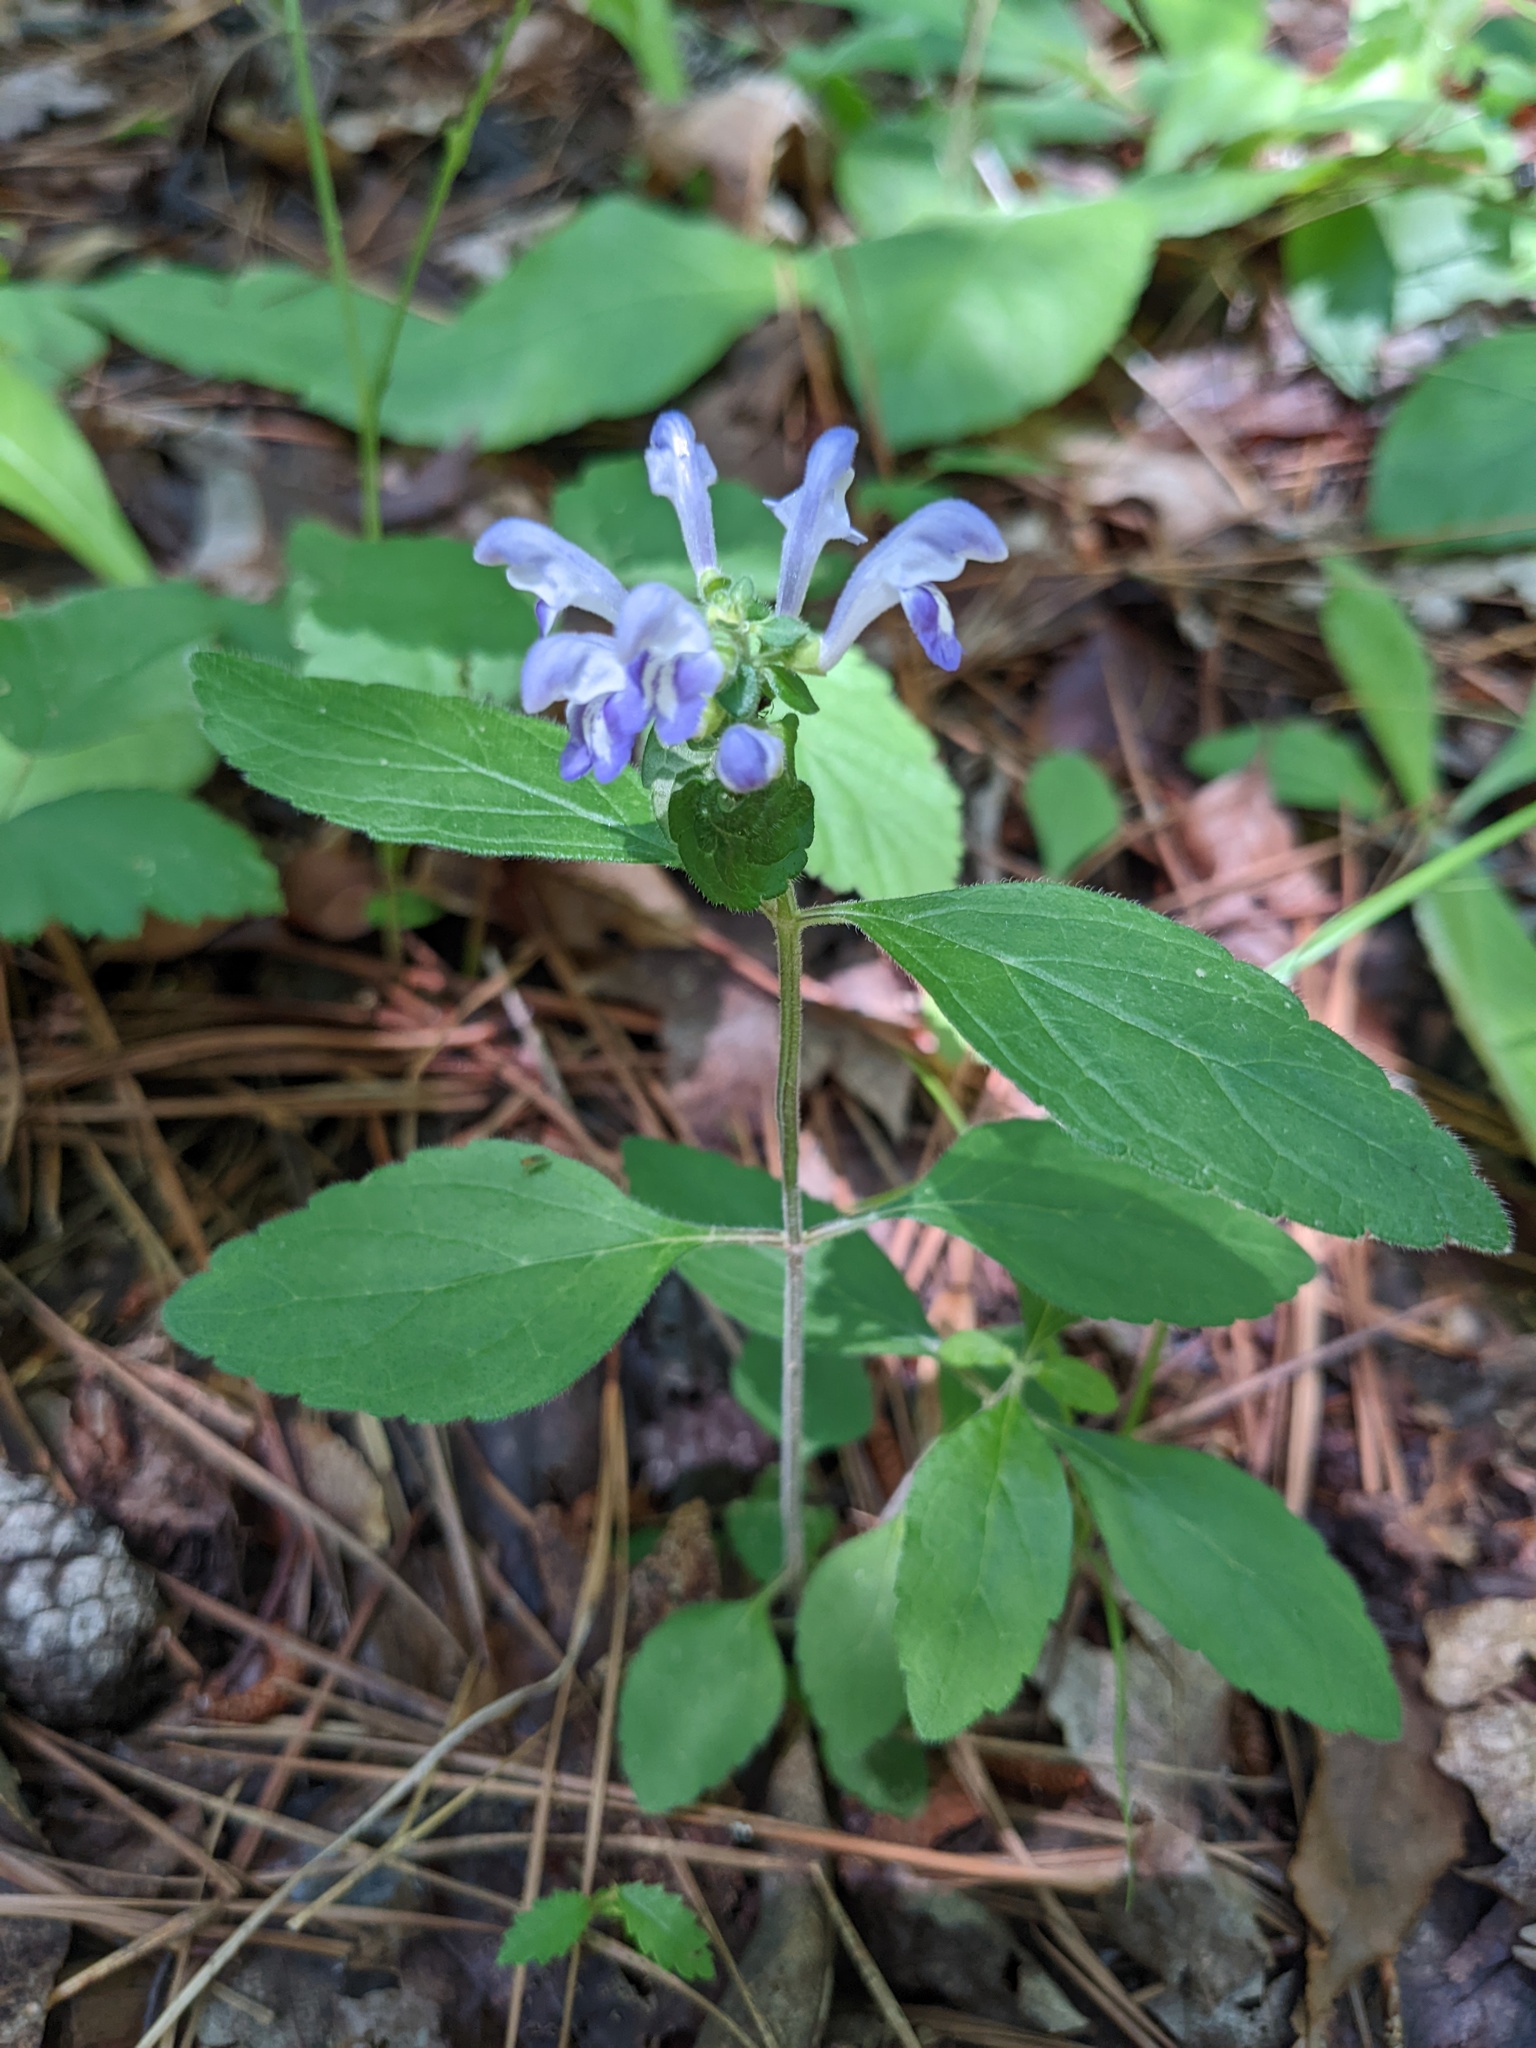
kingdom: Plantae
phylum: Tracheophyta
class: Magnoliopsida
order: Lamiales
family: Lamiaceae
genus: Scutellaria
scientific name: Scutellaria elliptica
